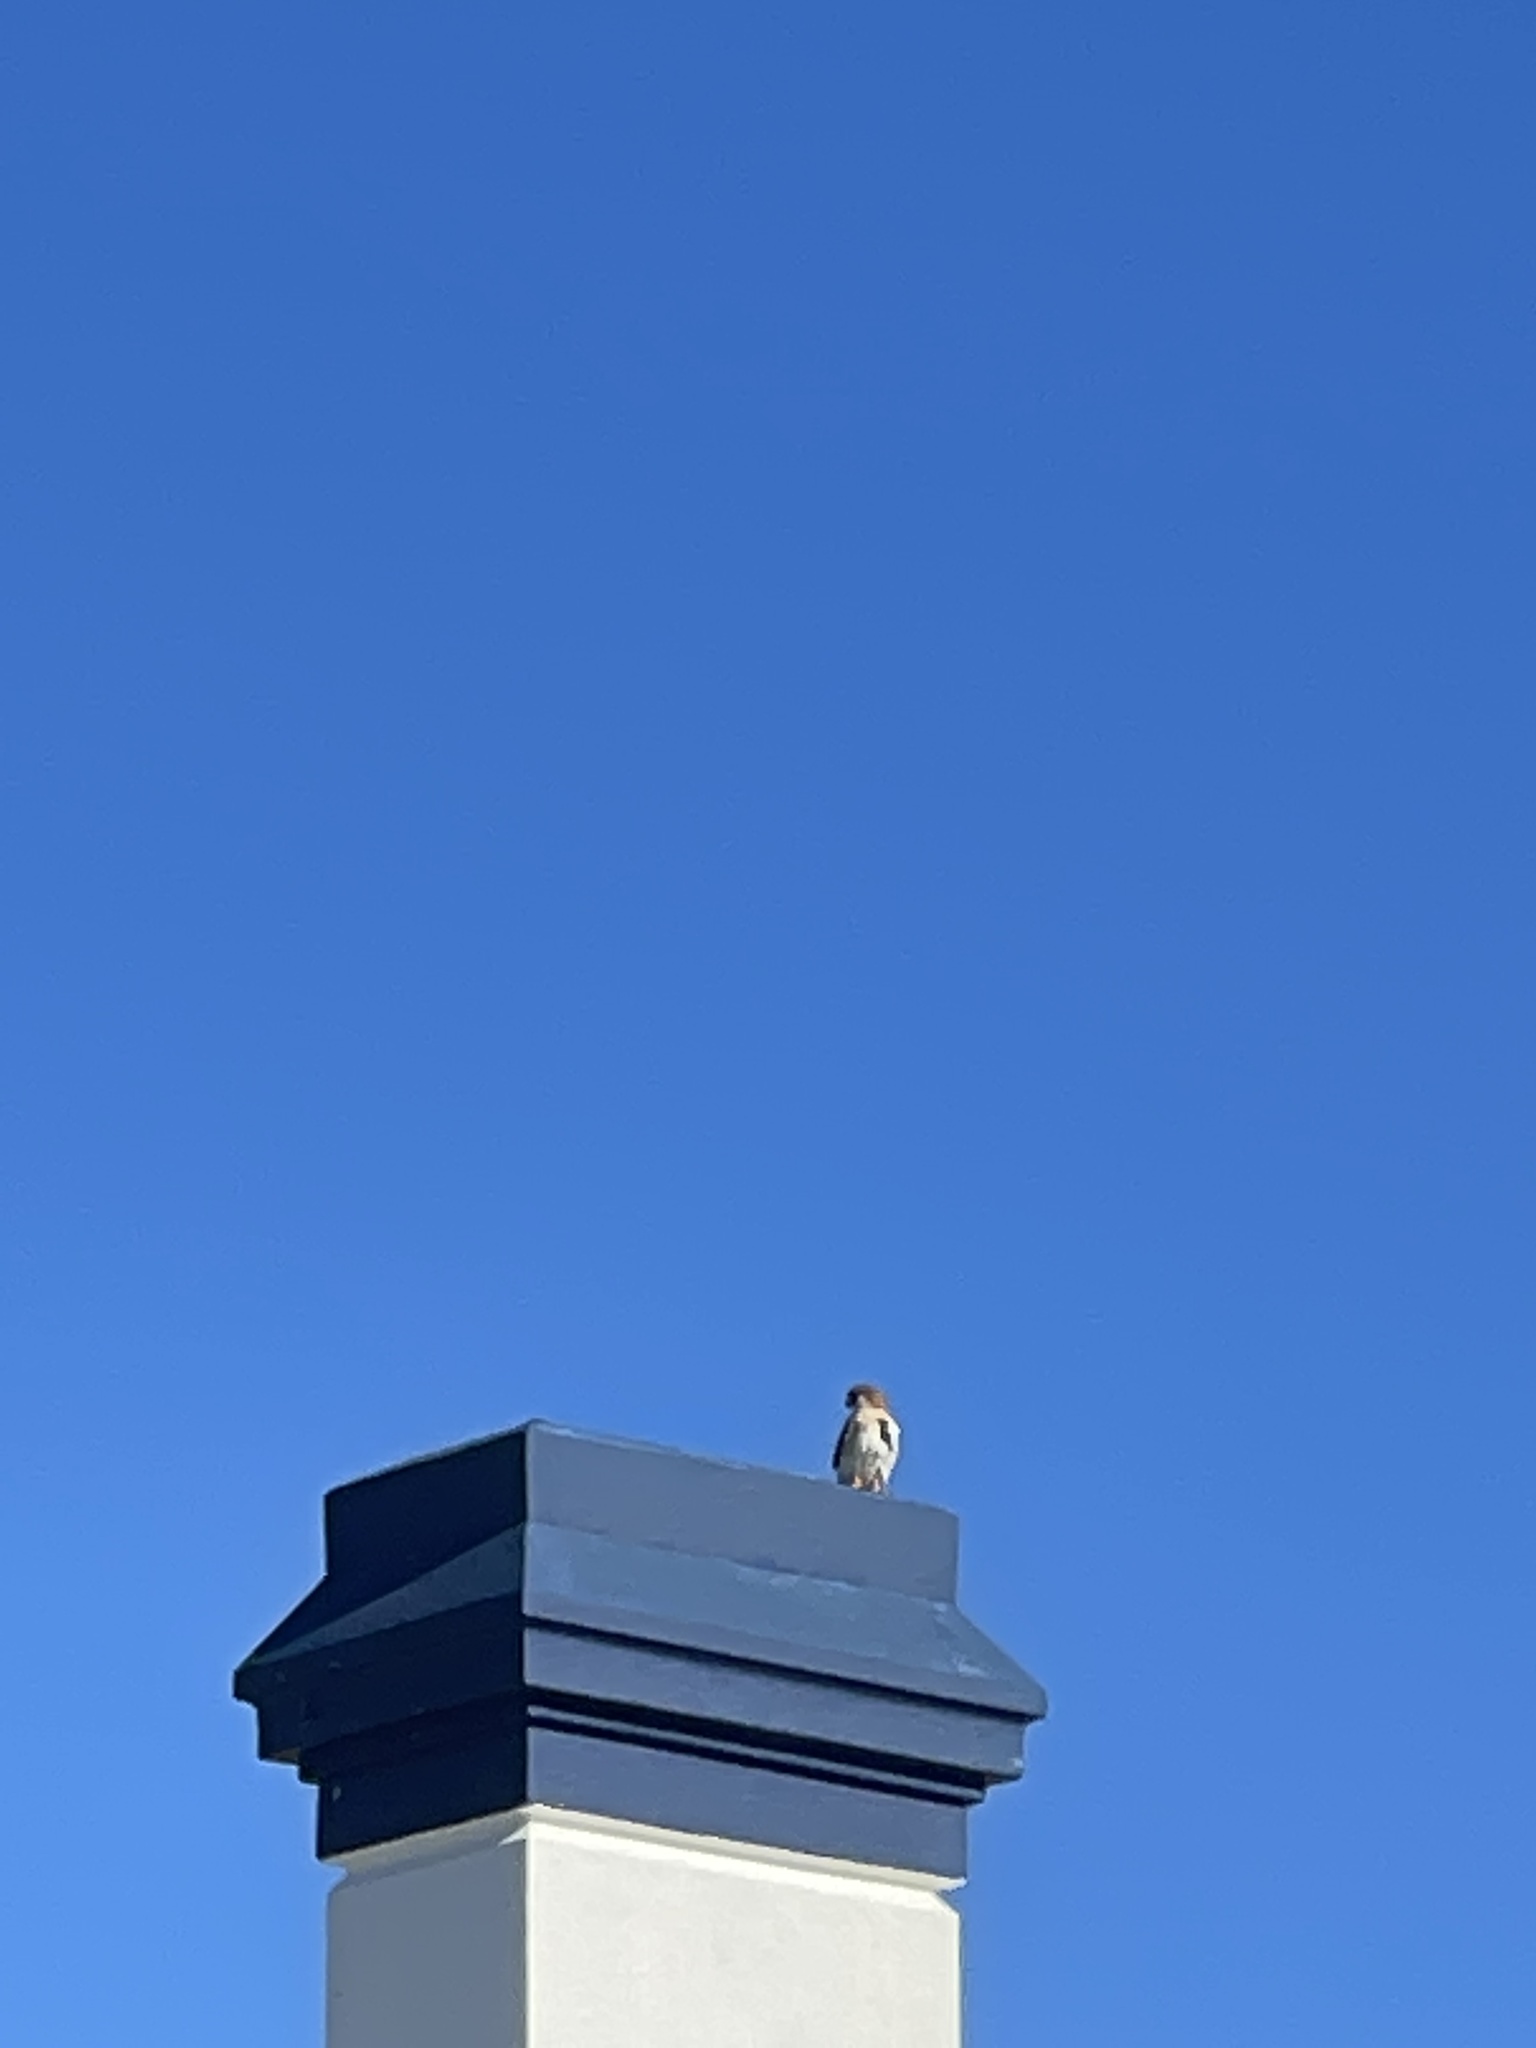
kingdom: Animalia
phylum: Chordata
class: Aves
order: Falconiformes
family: Falconidae
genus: Falco
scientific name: Falco cenchroides
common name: Nankeen kestrel
